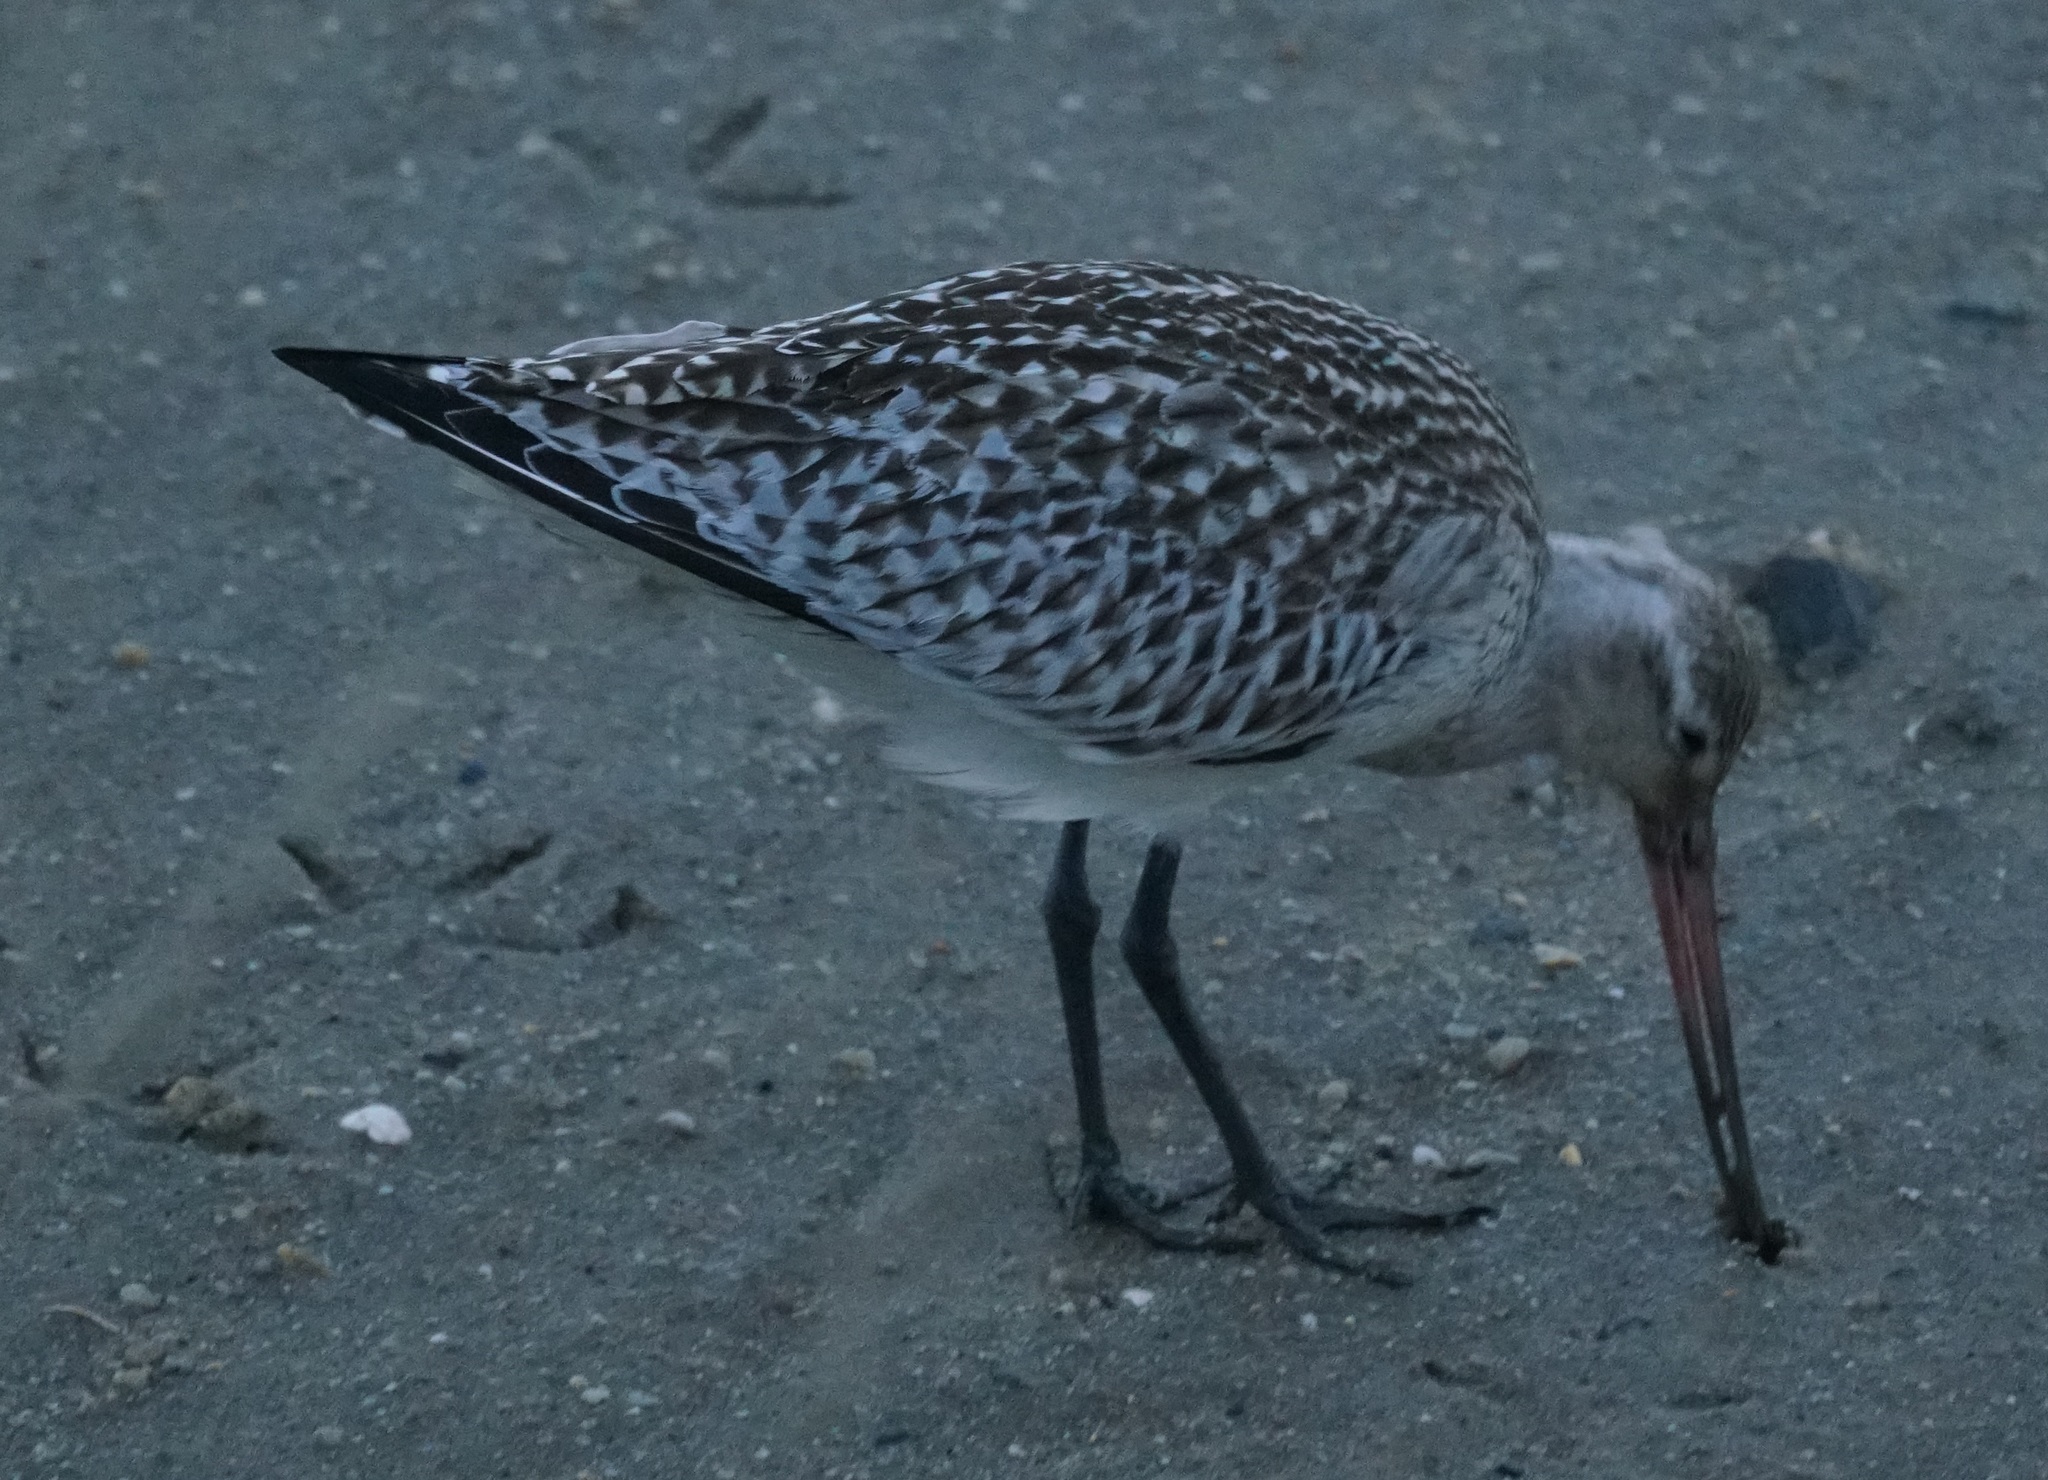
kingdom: Animalia
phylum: Chordata
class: Aves
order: Charadriiformes
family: Scolopacidae
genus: Limosa
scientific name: Limosa lapponica
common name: Bar-tailed godwit
